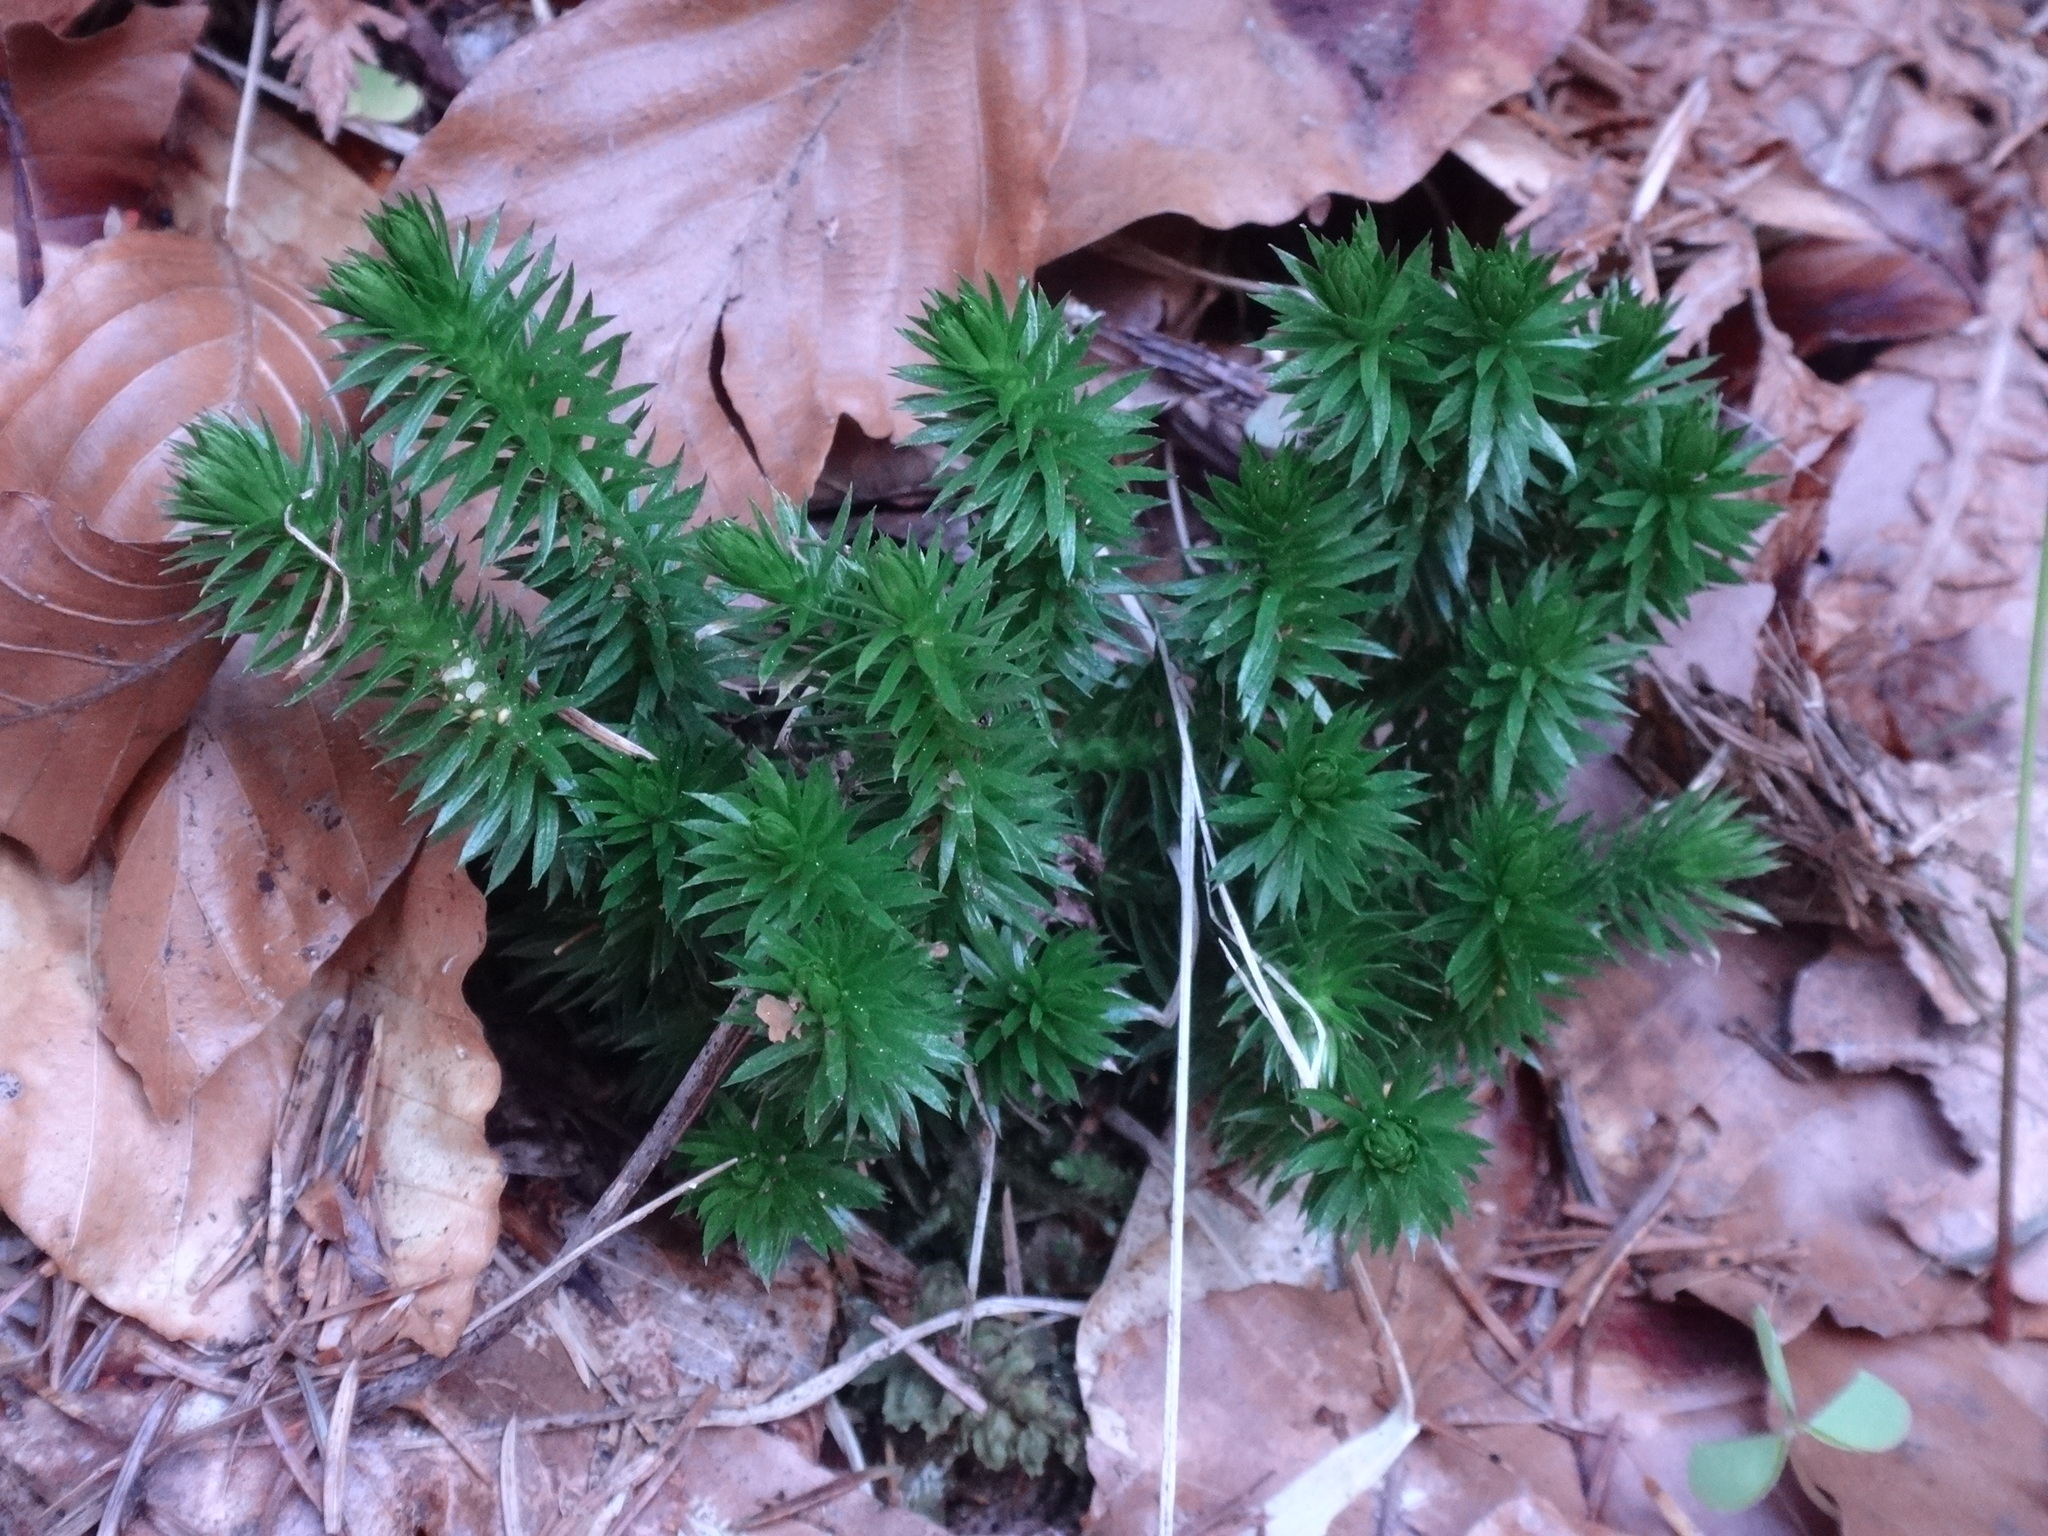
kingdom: Plantae
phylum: Tracheophyta
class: Lycopodiopsida
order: Lycopodiales
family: Lycopodiaceae
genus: Huperzia
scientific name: Huperzia selago
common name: Northern firmoss
